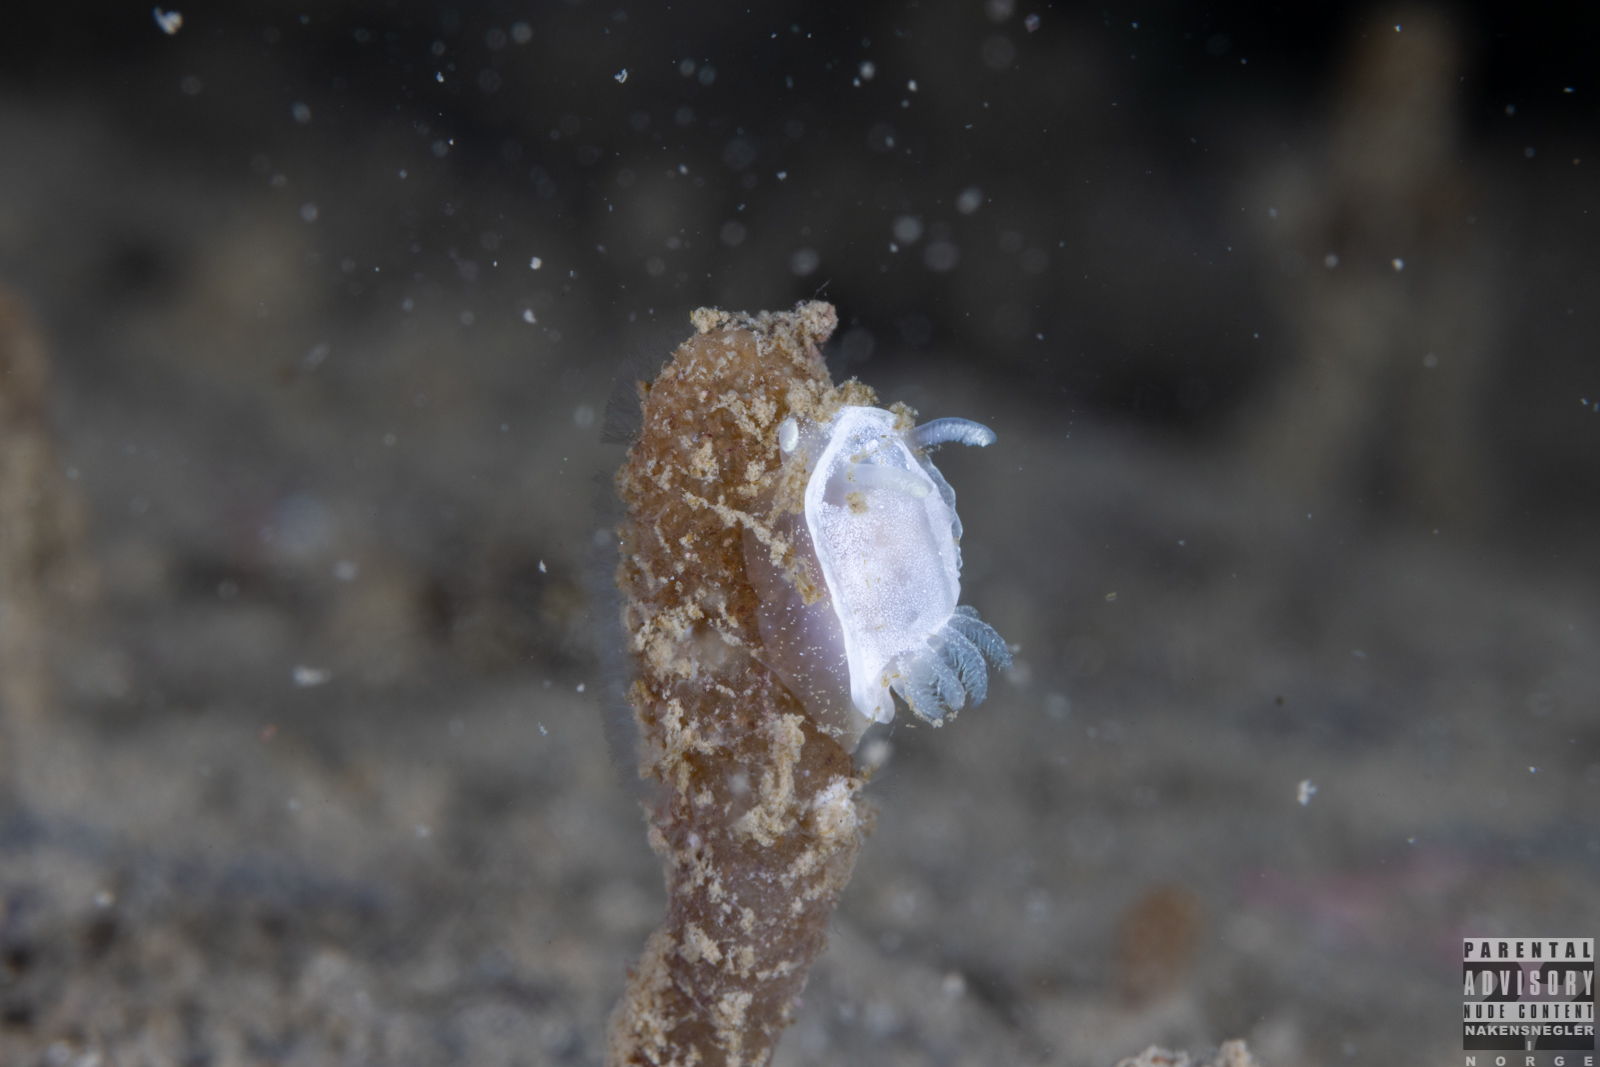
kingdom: Animalia
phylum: Mollusca
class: Gastropoda
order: Nudibranchia
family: Goniodorididae
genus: Okenia
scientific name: Okenia
